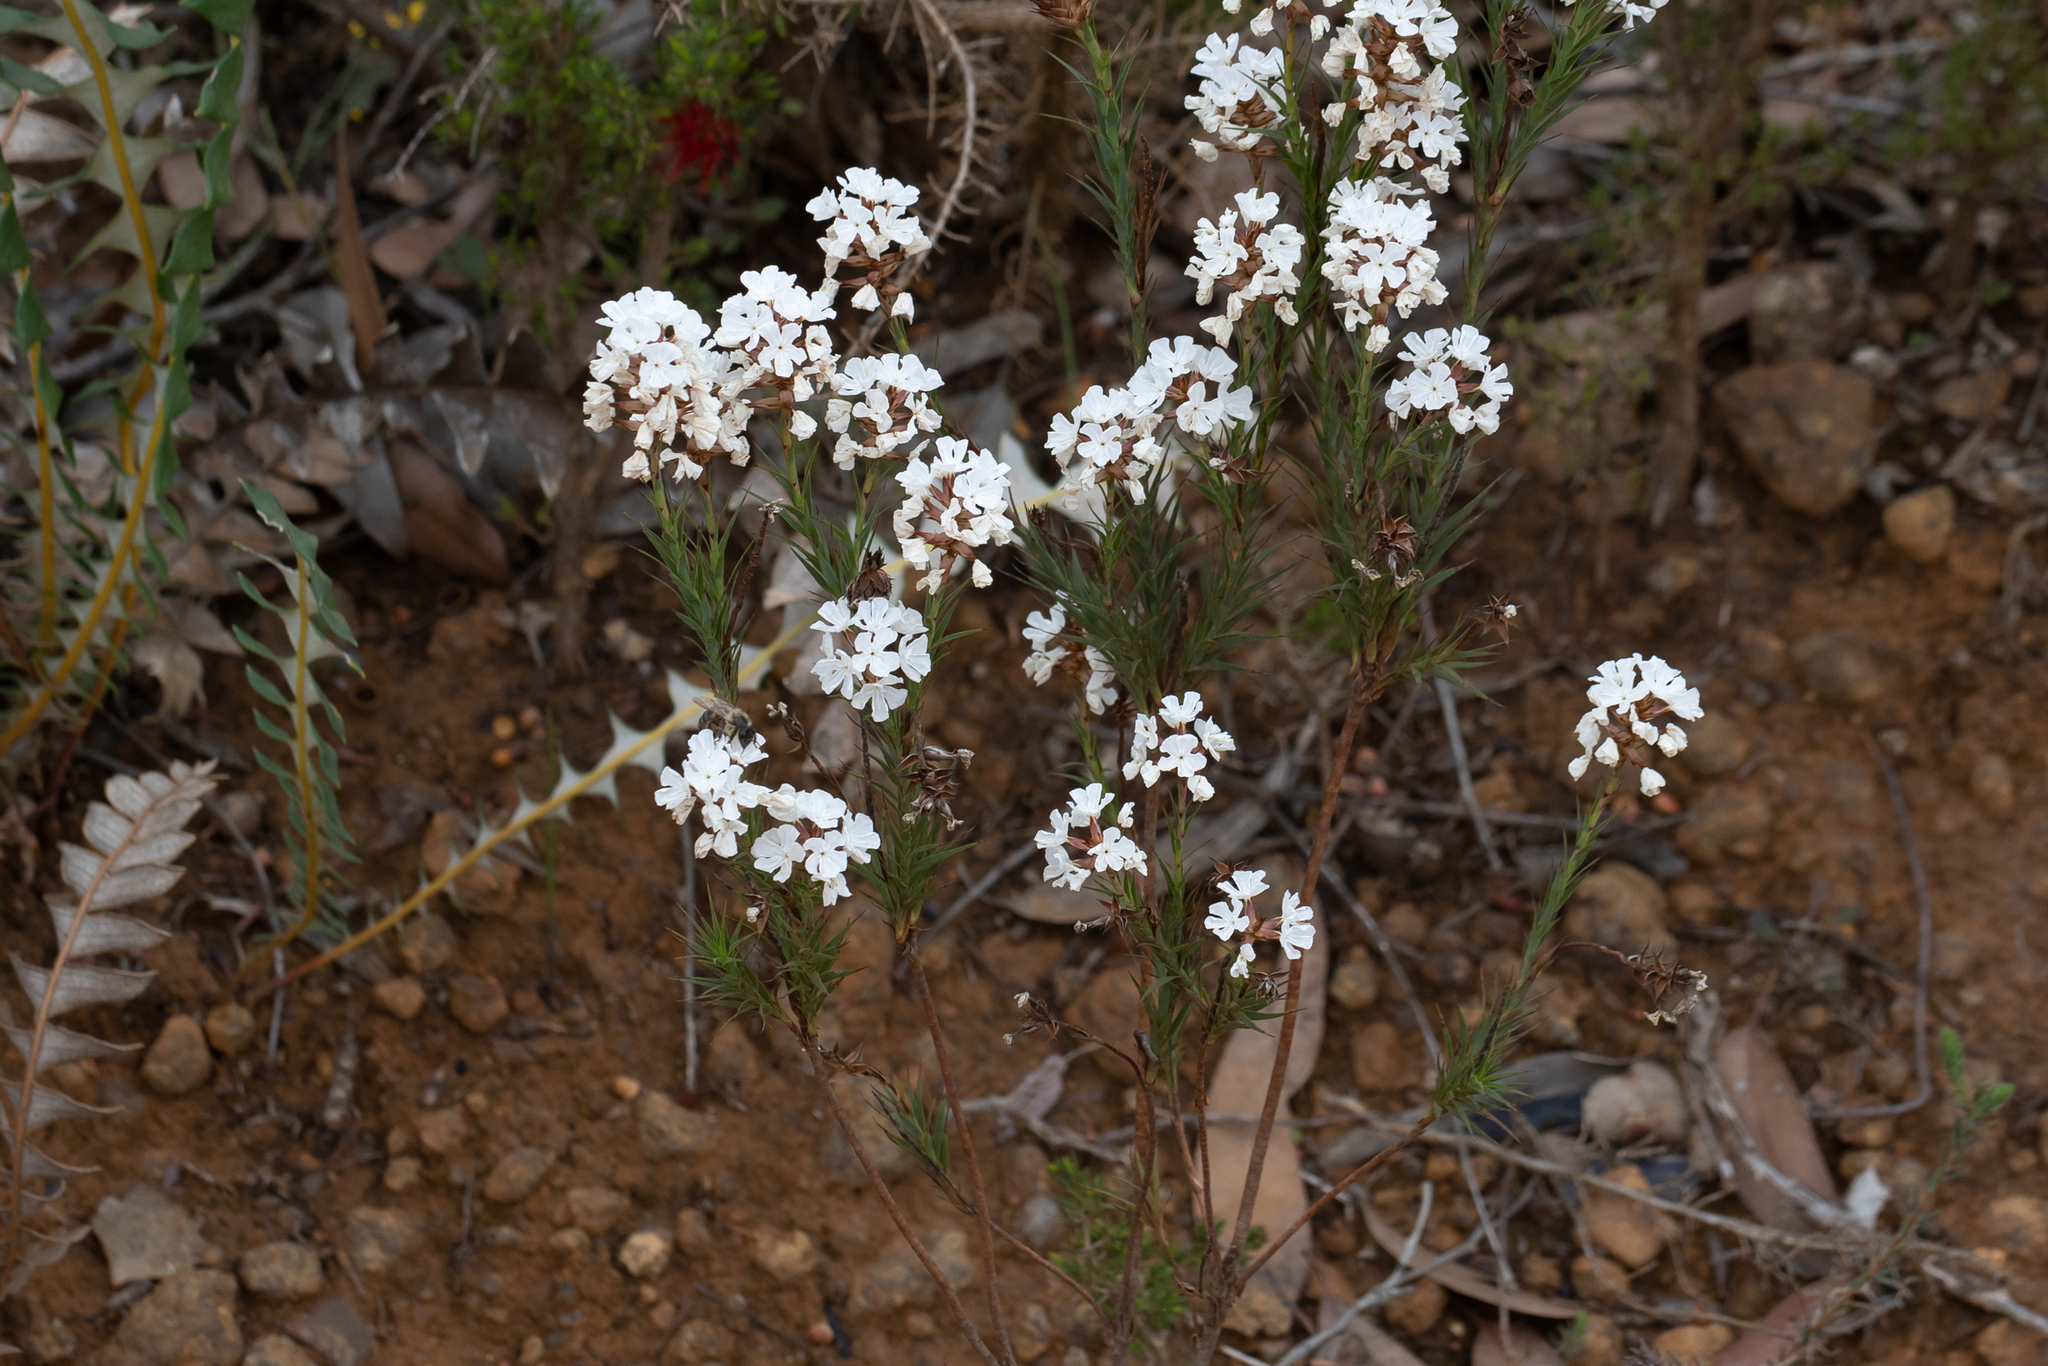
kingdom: Plantae
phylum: Tracheophyta
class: Magnoliopsida
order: Ericales
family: Ericaceae
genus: Sphenotoma
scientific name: Sphenotoma dracophylloides
